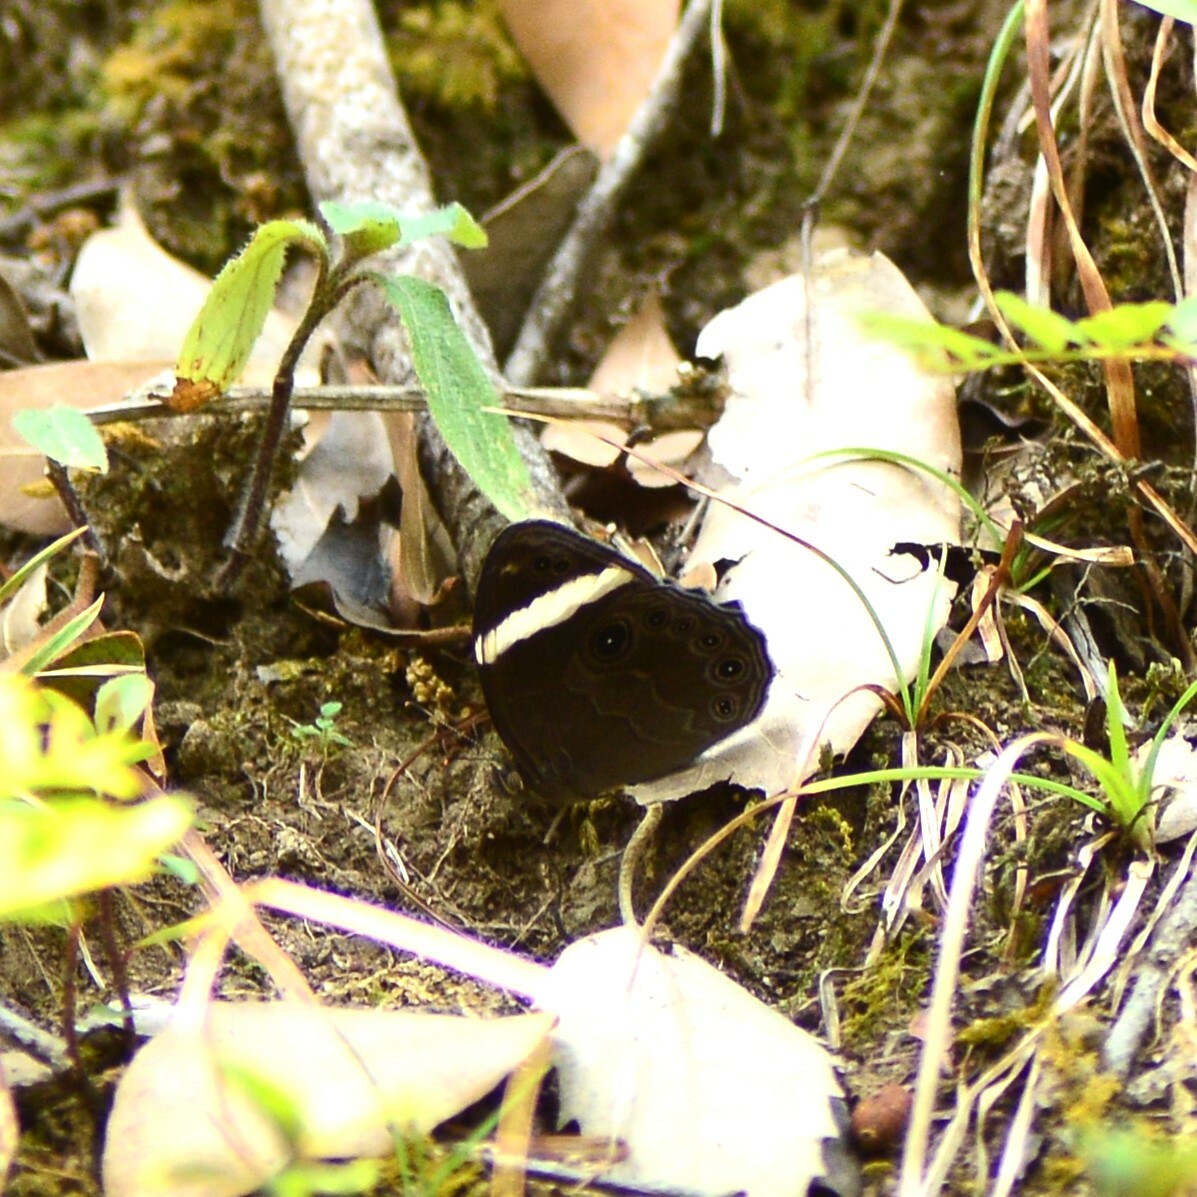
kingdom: Animalia
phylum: Arthropoda
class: Insecta
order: Lepidoptera
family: Nymphalidae
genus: Lethe
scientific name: Lethe verma
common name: Straight-banded treebrown
